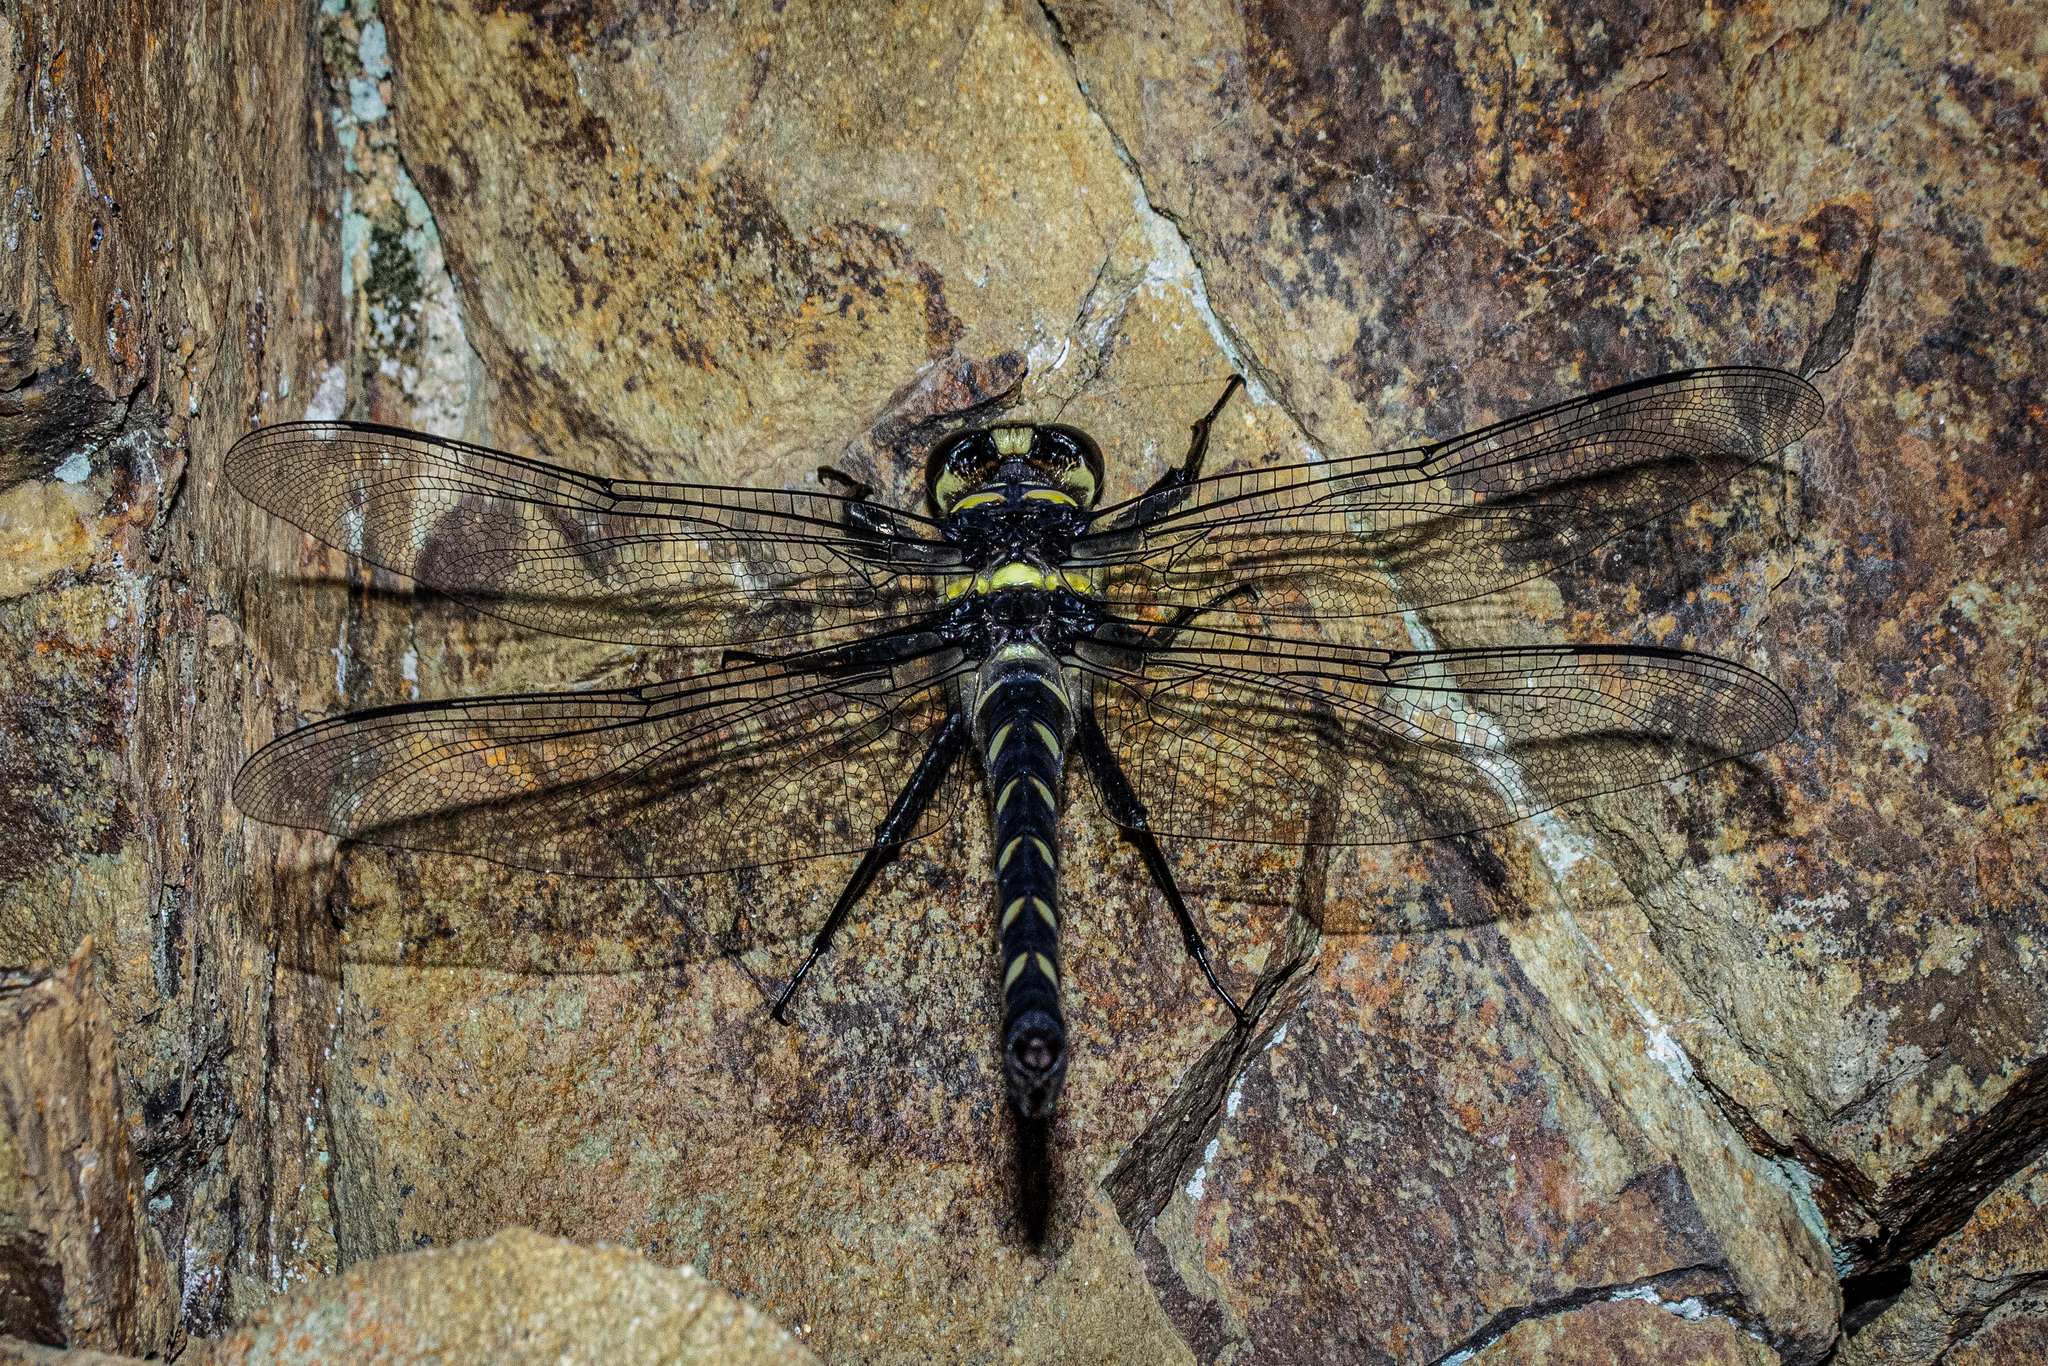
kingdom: Animalia
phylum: Arthropoda
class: Insecta
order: Odonata
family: Petaluridae
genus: Uropetala
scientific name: Uropetala chiltoni
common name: Mountain giant dragonfly
